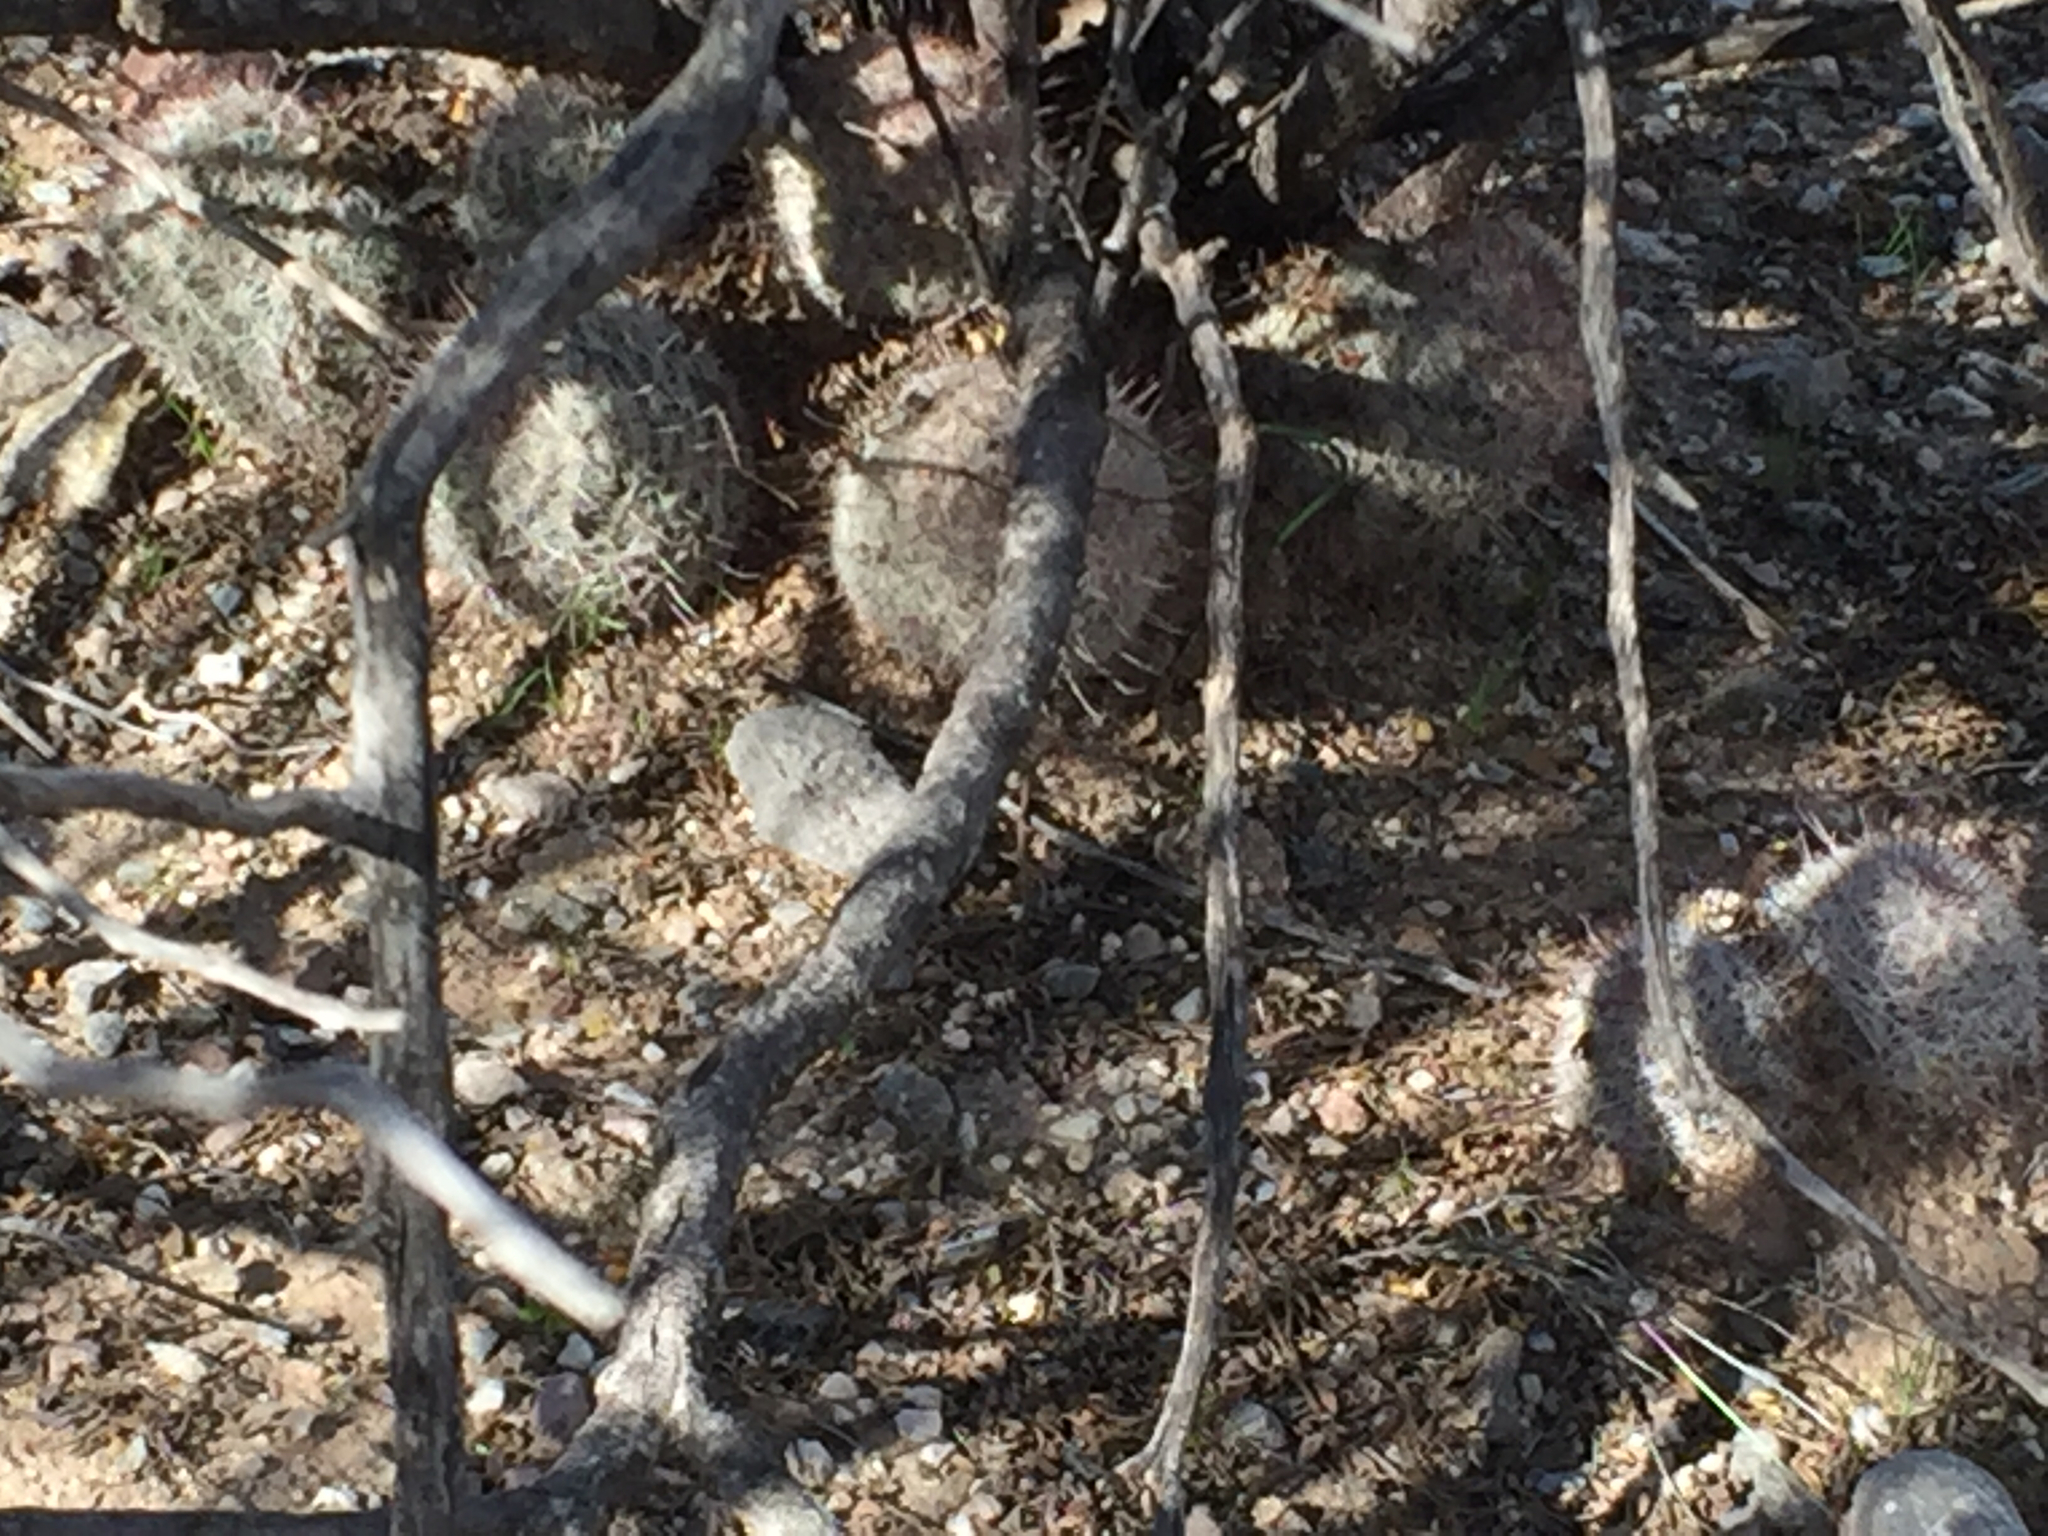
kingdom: Plantae
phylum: Tracheophyta
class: Magnoliopsida
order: Caryophyllales
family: Cactaceae
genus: Cochemiea
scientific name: Cochemiea grahamii
